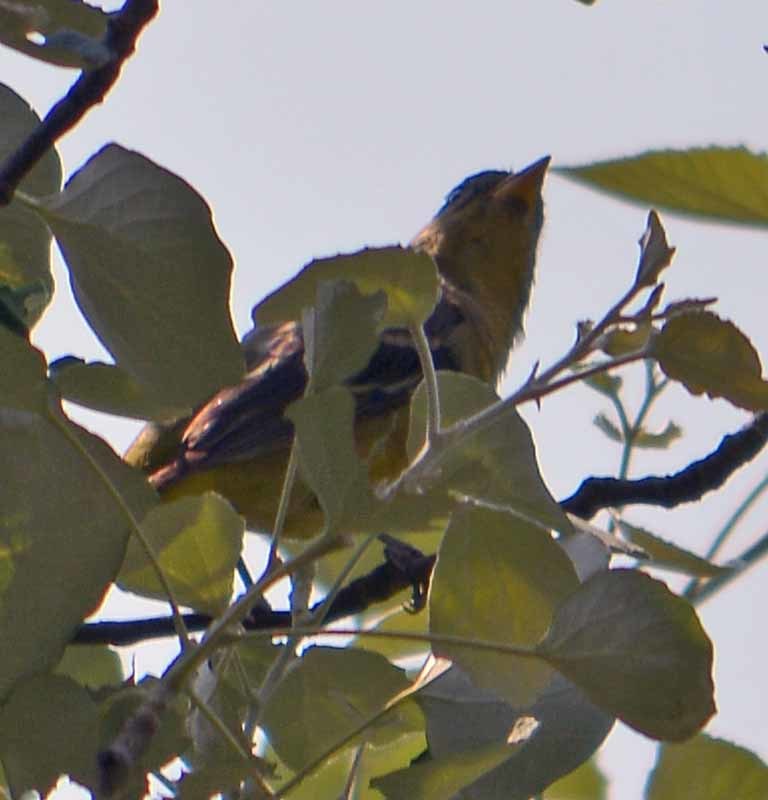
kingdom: Animalia
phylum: Chordata
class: Aves
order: Passeriformes
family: Cardinalidae
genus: Piranga
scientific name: Piranga ludoviciana
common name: Western tanager
